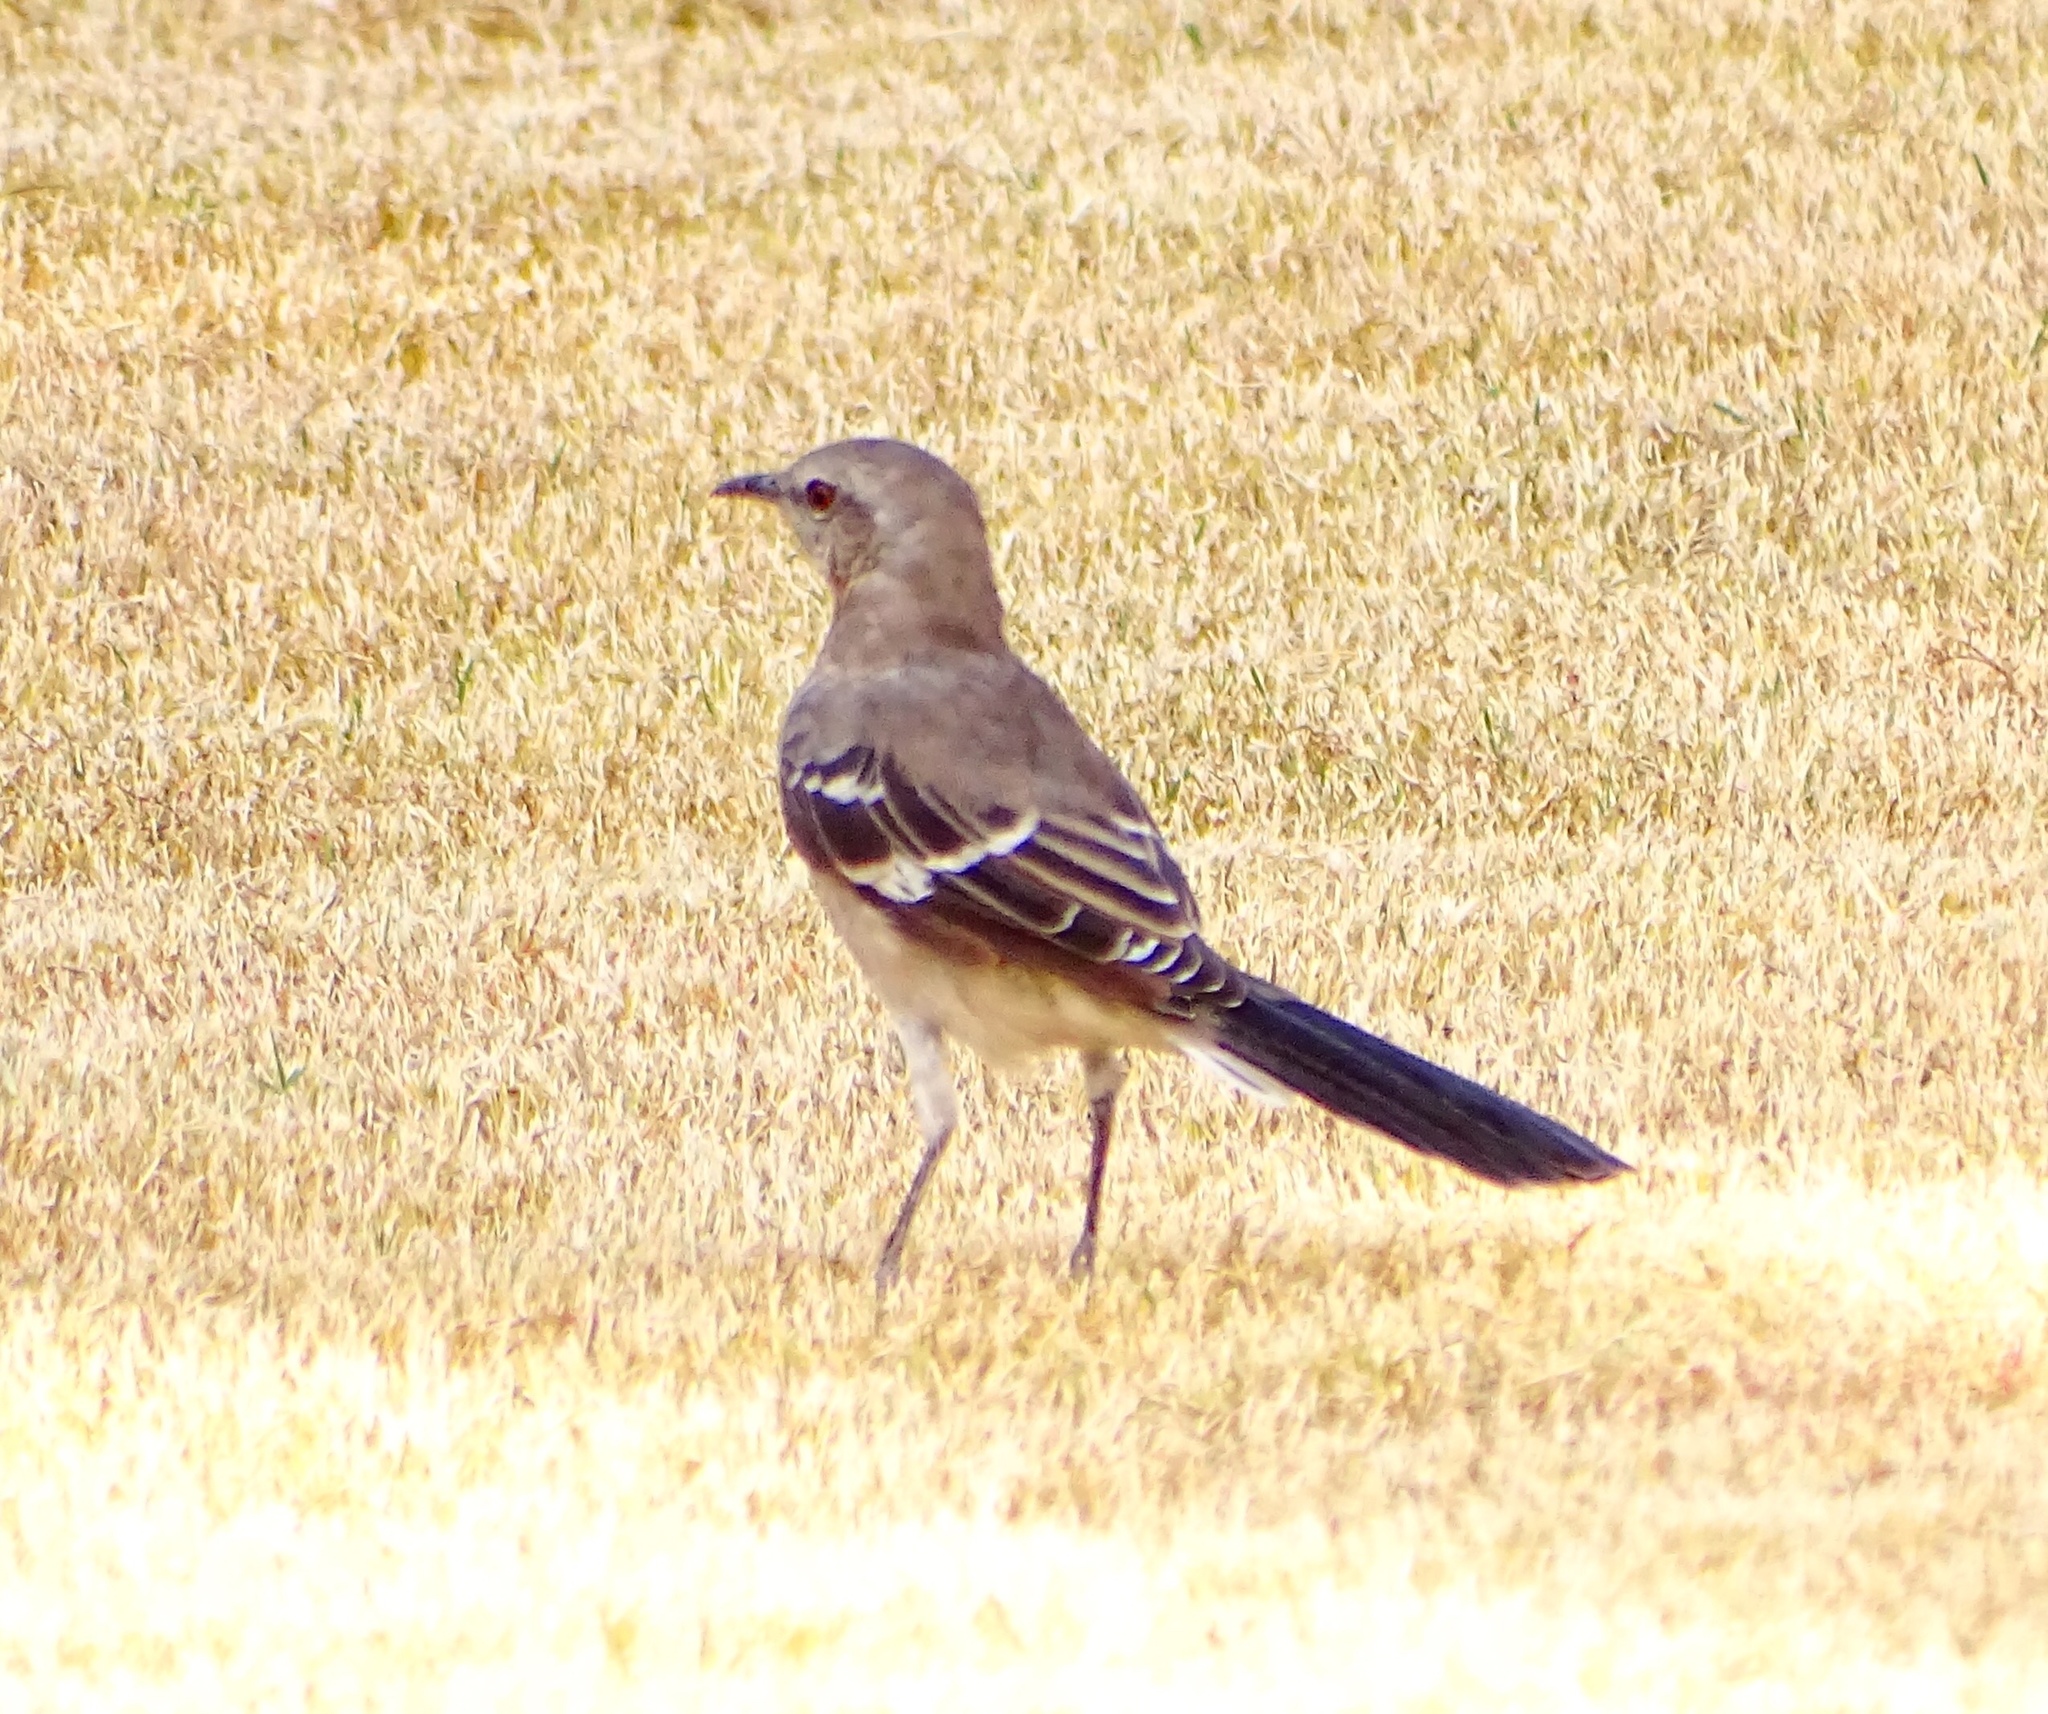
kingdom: Animalia
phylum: Chordata
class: Aves
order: Passeriformes
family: Mimidae
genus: Mimus
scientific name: Mimus polyglottos
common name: Northern mockingbird
